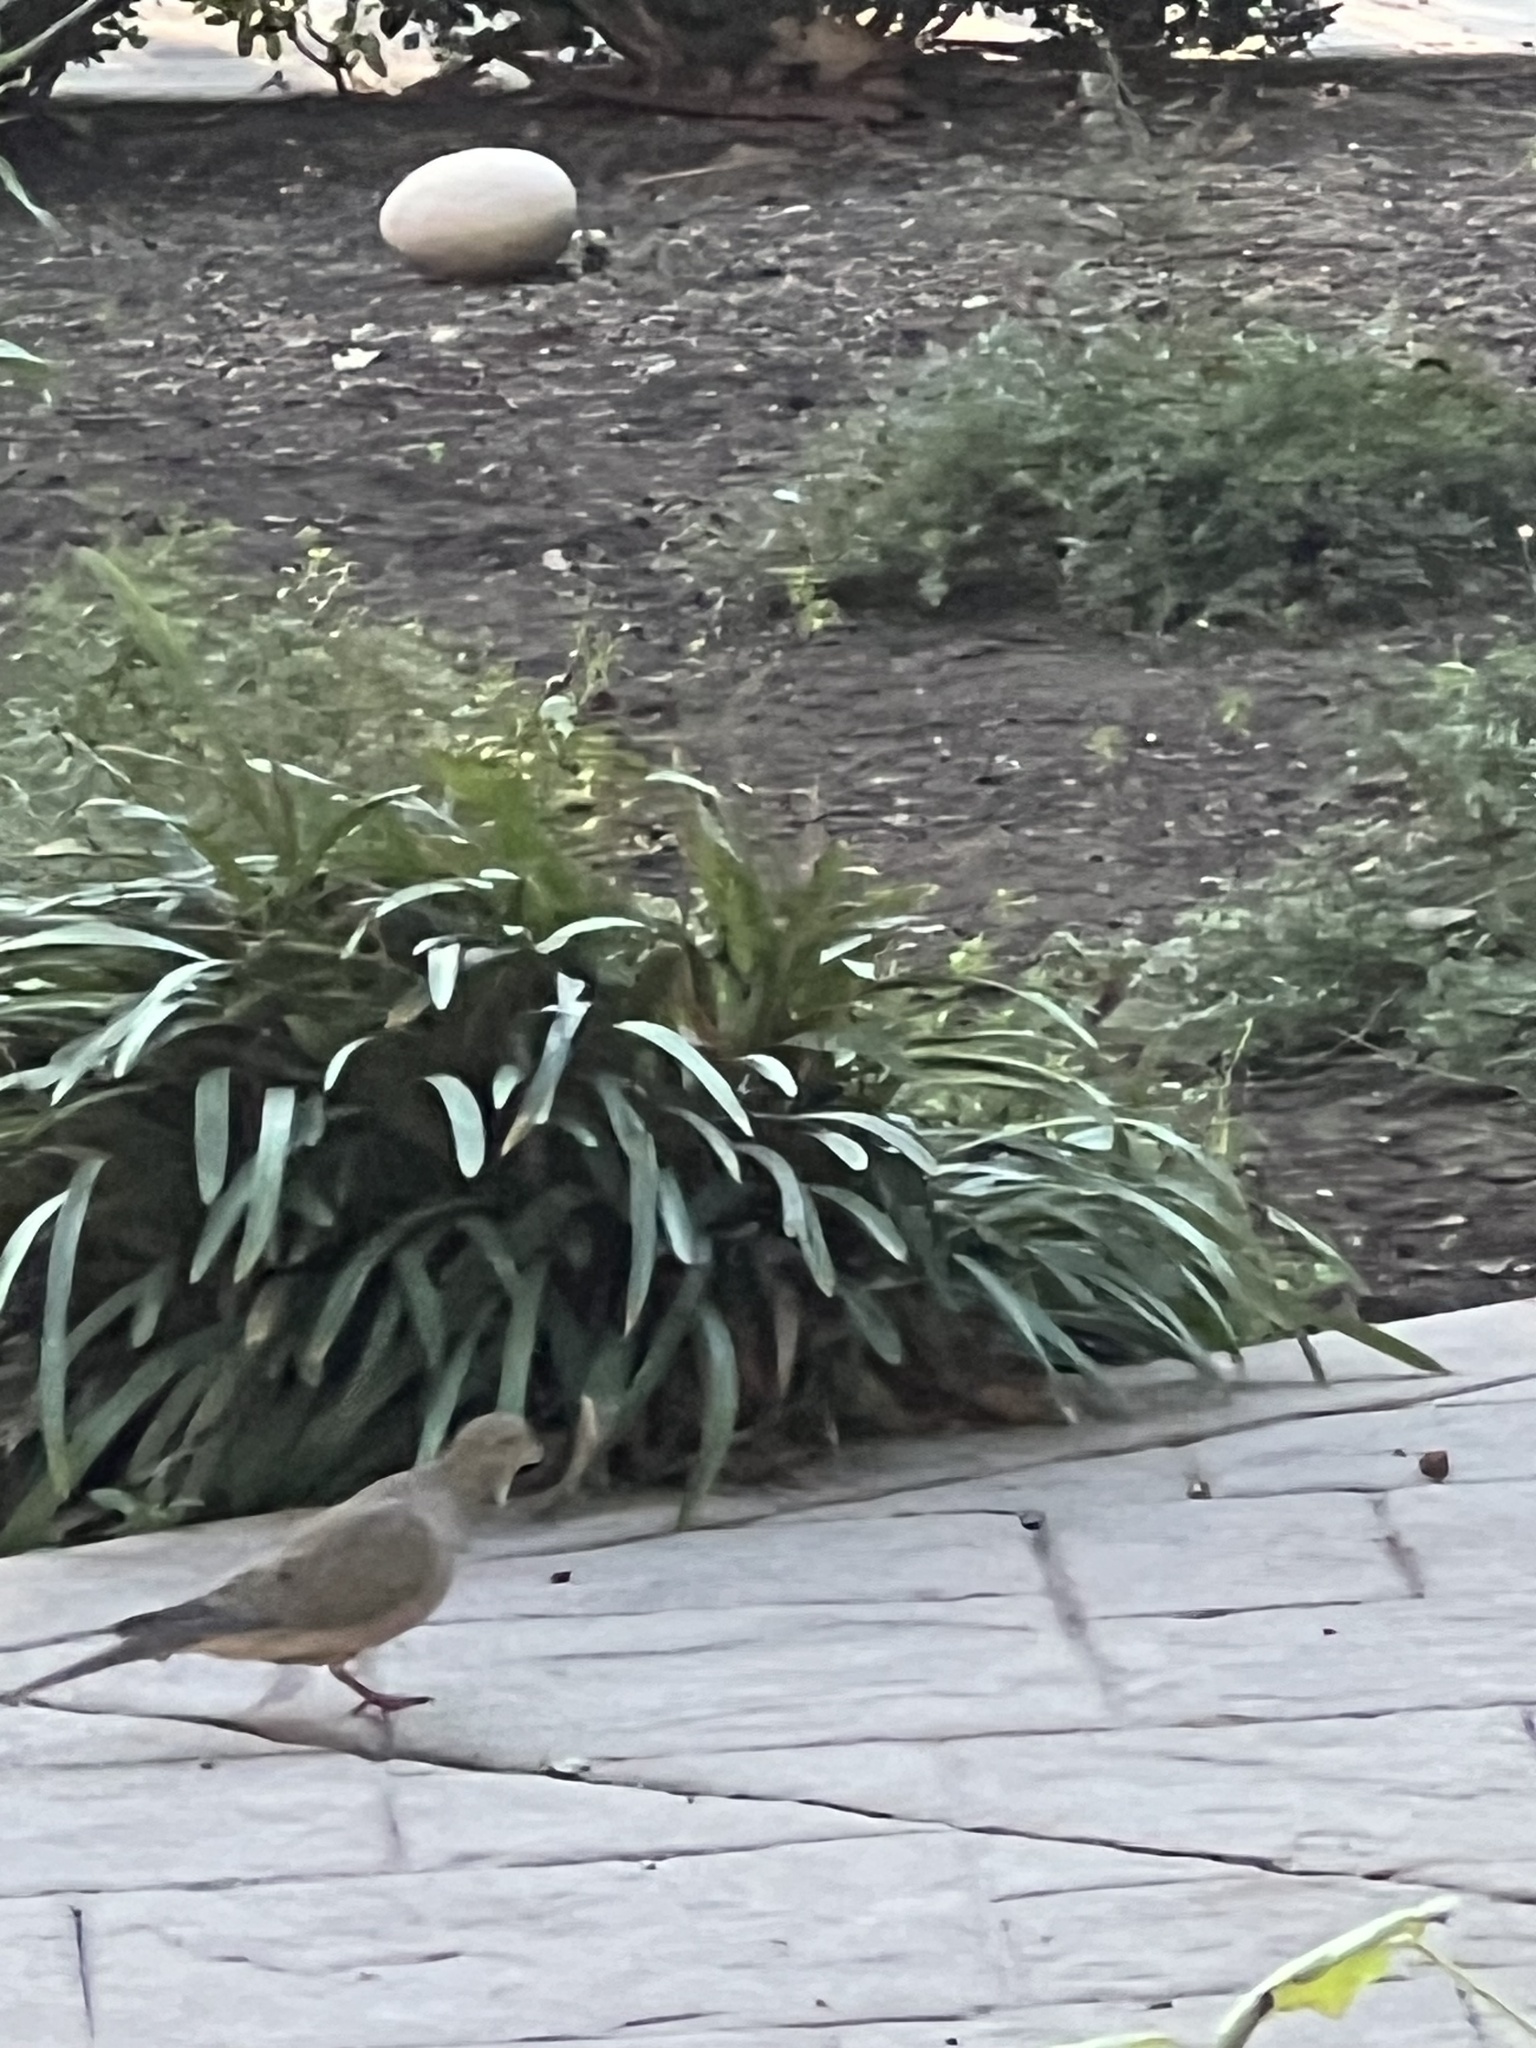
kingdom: Animalia
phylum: Chordata
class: Aves
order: Columbiformes
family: Columbidae
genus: Zenaida
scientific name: Zenaida macroura
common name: Mourning dove
